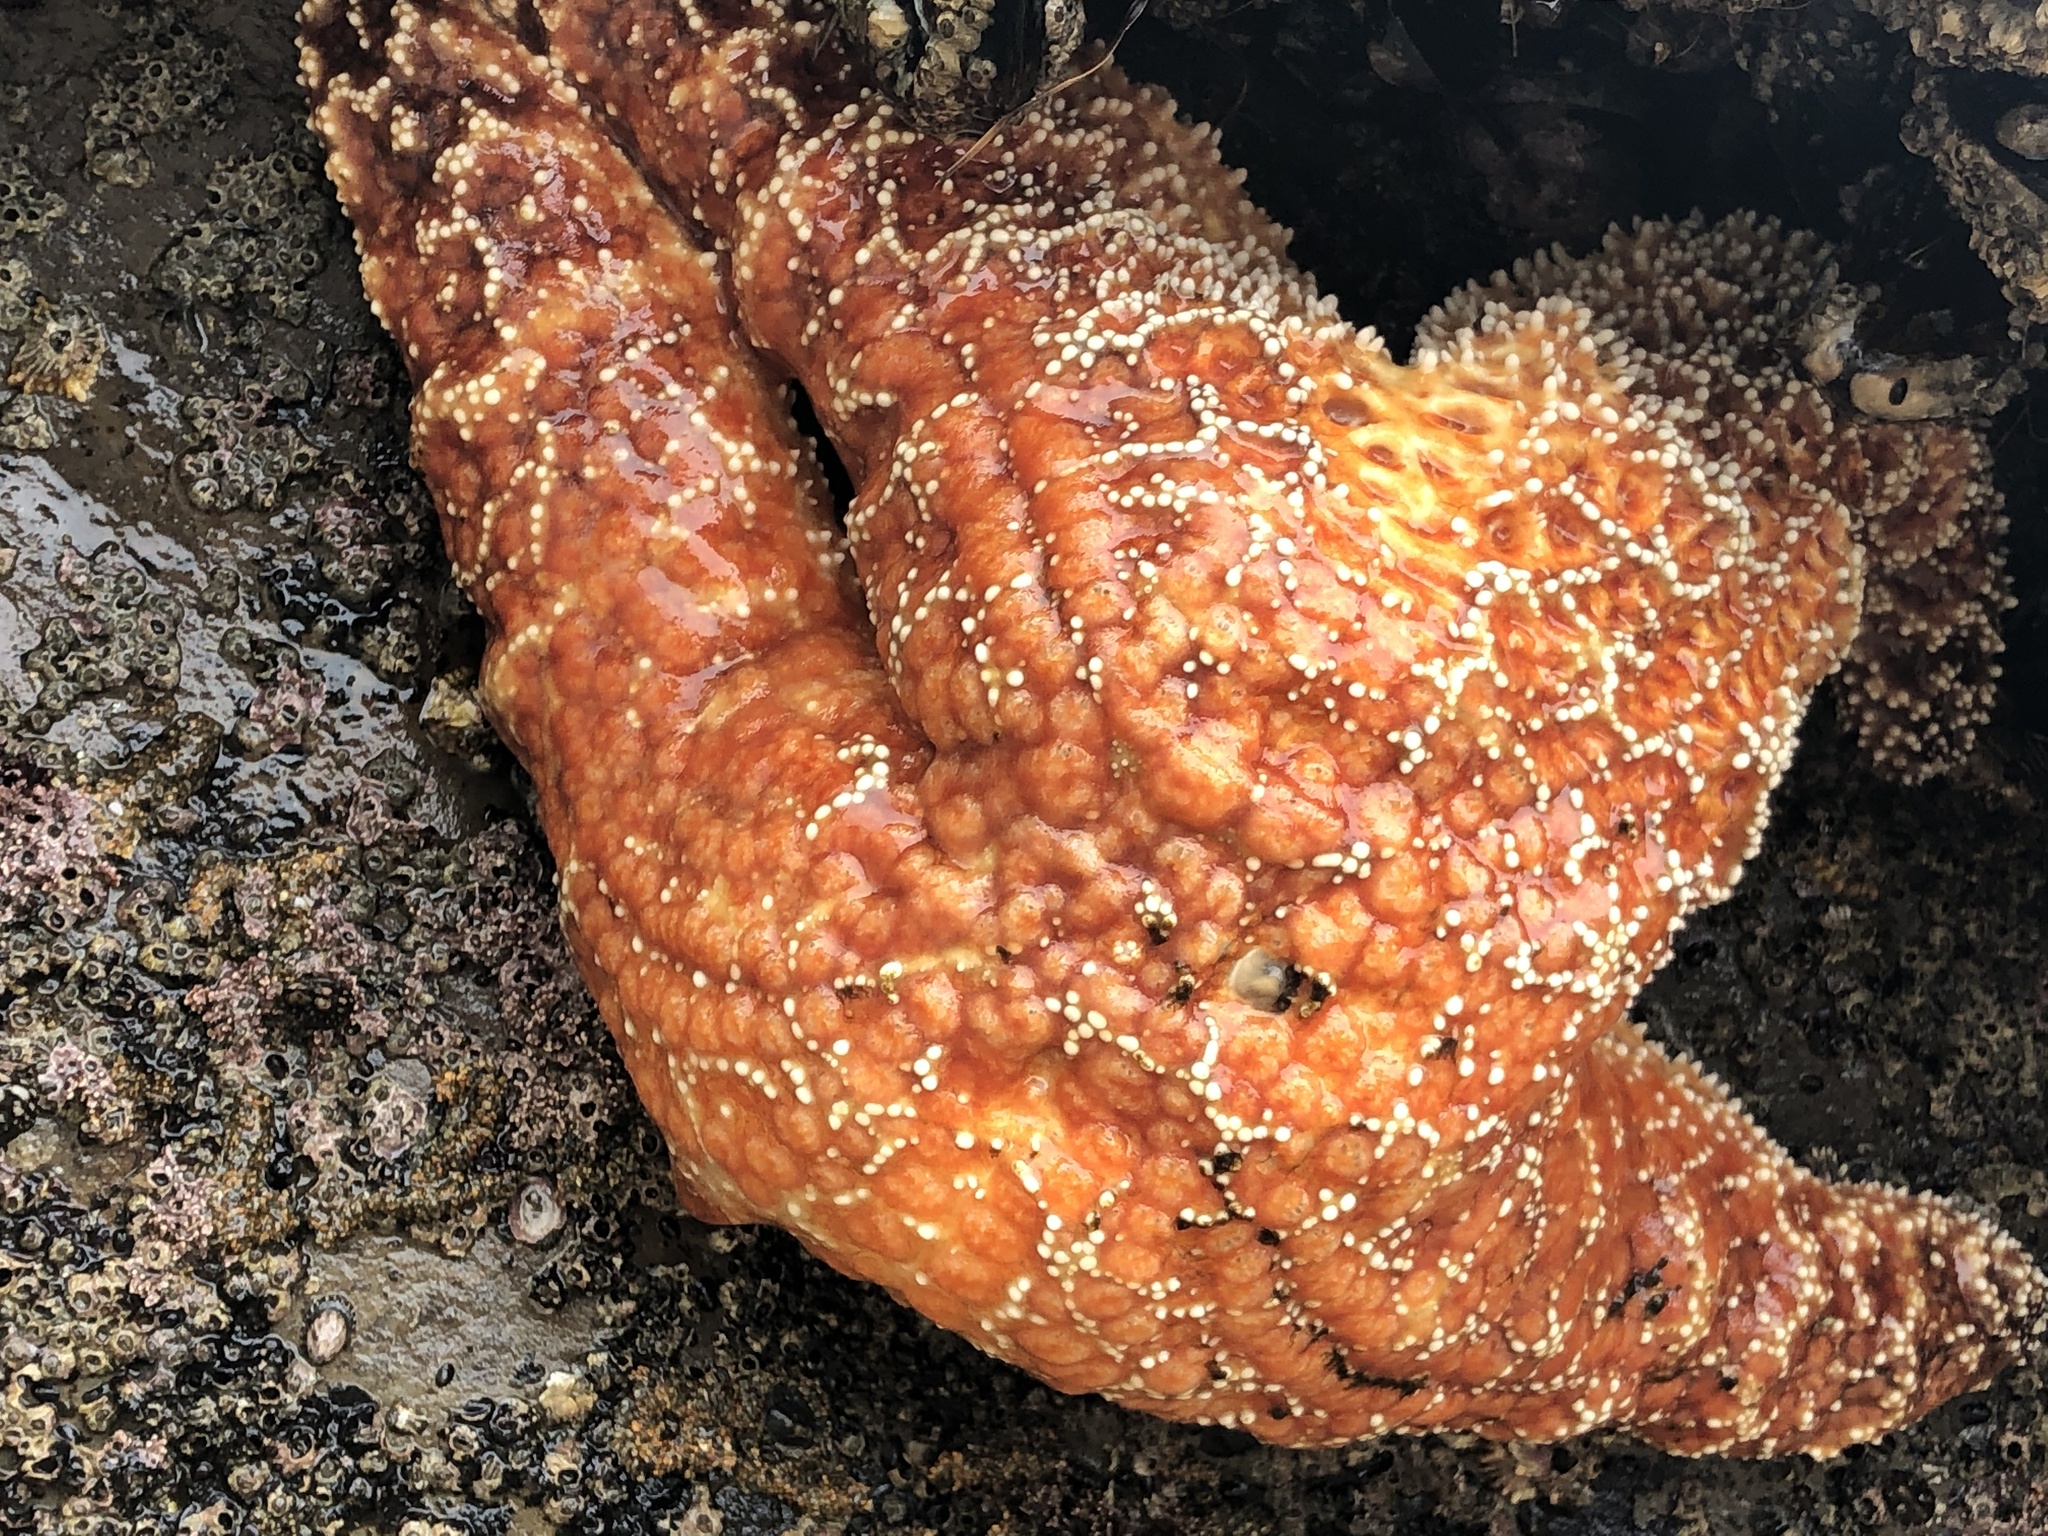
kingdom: Animalia
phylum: Echinodermata
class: Asteroidea
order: Forcipulatida
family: Asteriidae
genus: Pisaster
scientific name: Pisaster ochraceus
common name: Ochre stars
